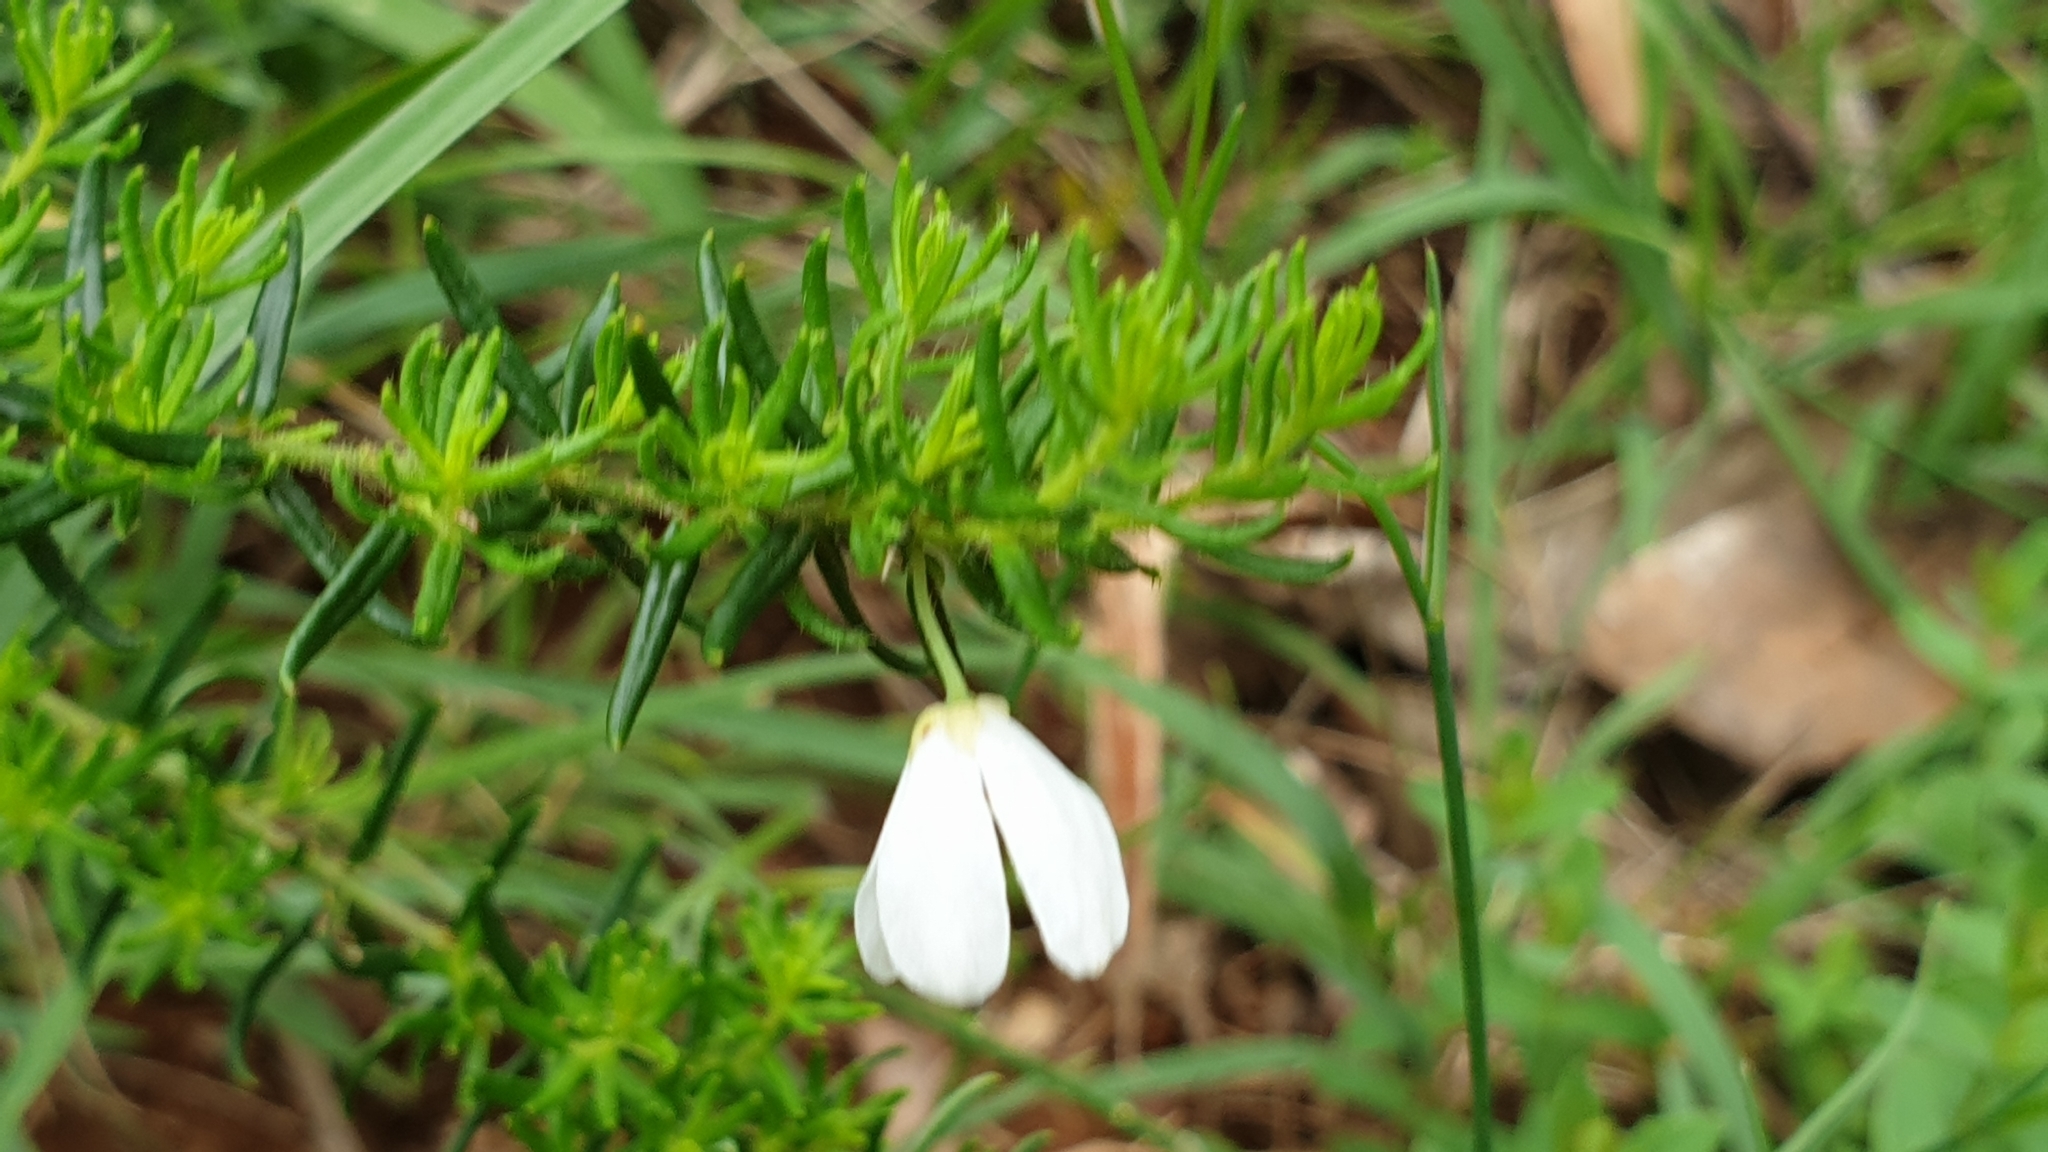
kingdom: Plantae
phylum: Tracheophyta
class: Magnoliopsida
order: Oxalidales
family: Elaeocarpaceae
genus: Tetratheca
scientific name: Tetratheca pilosa
